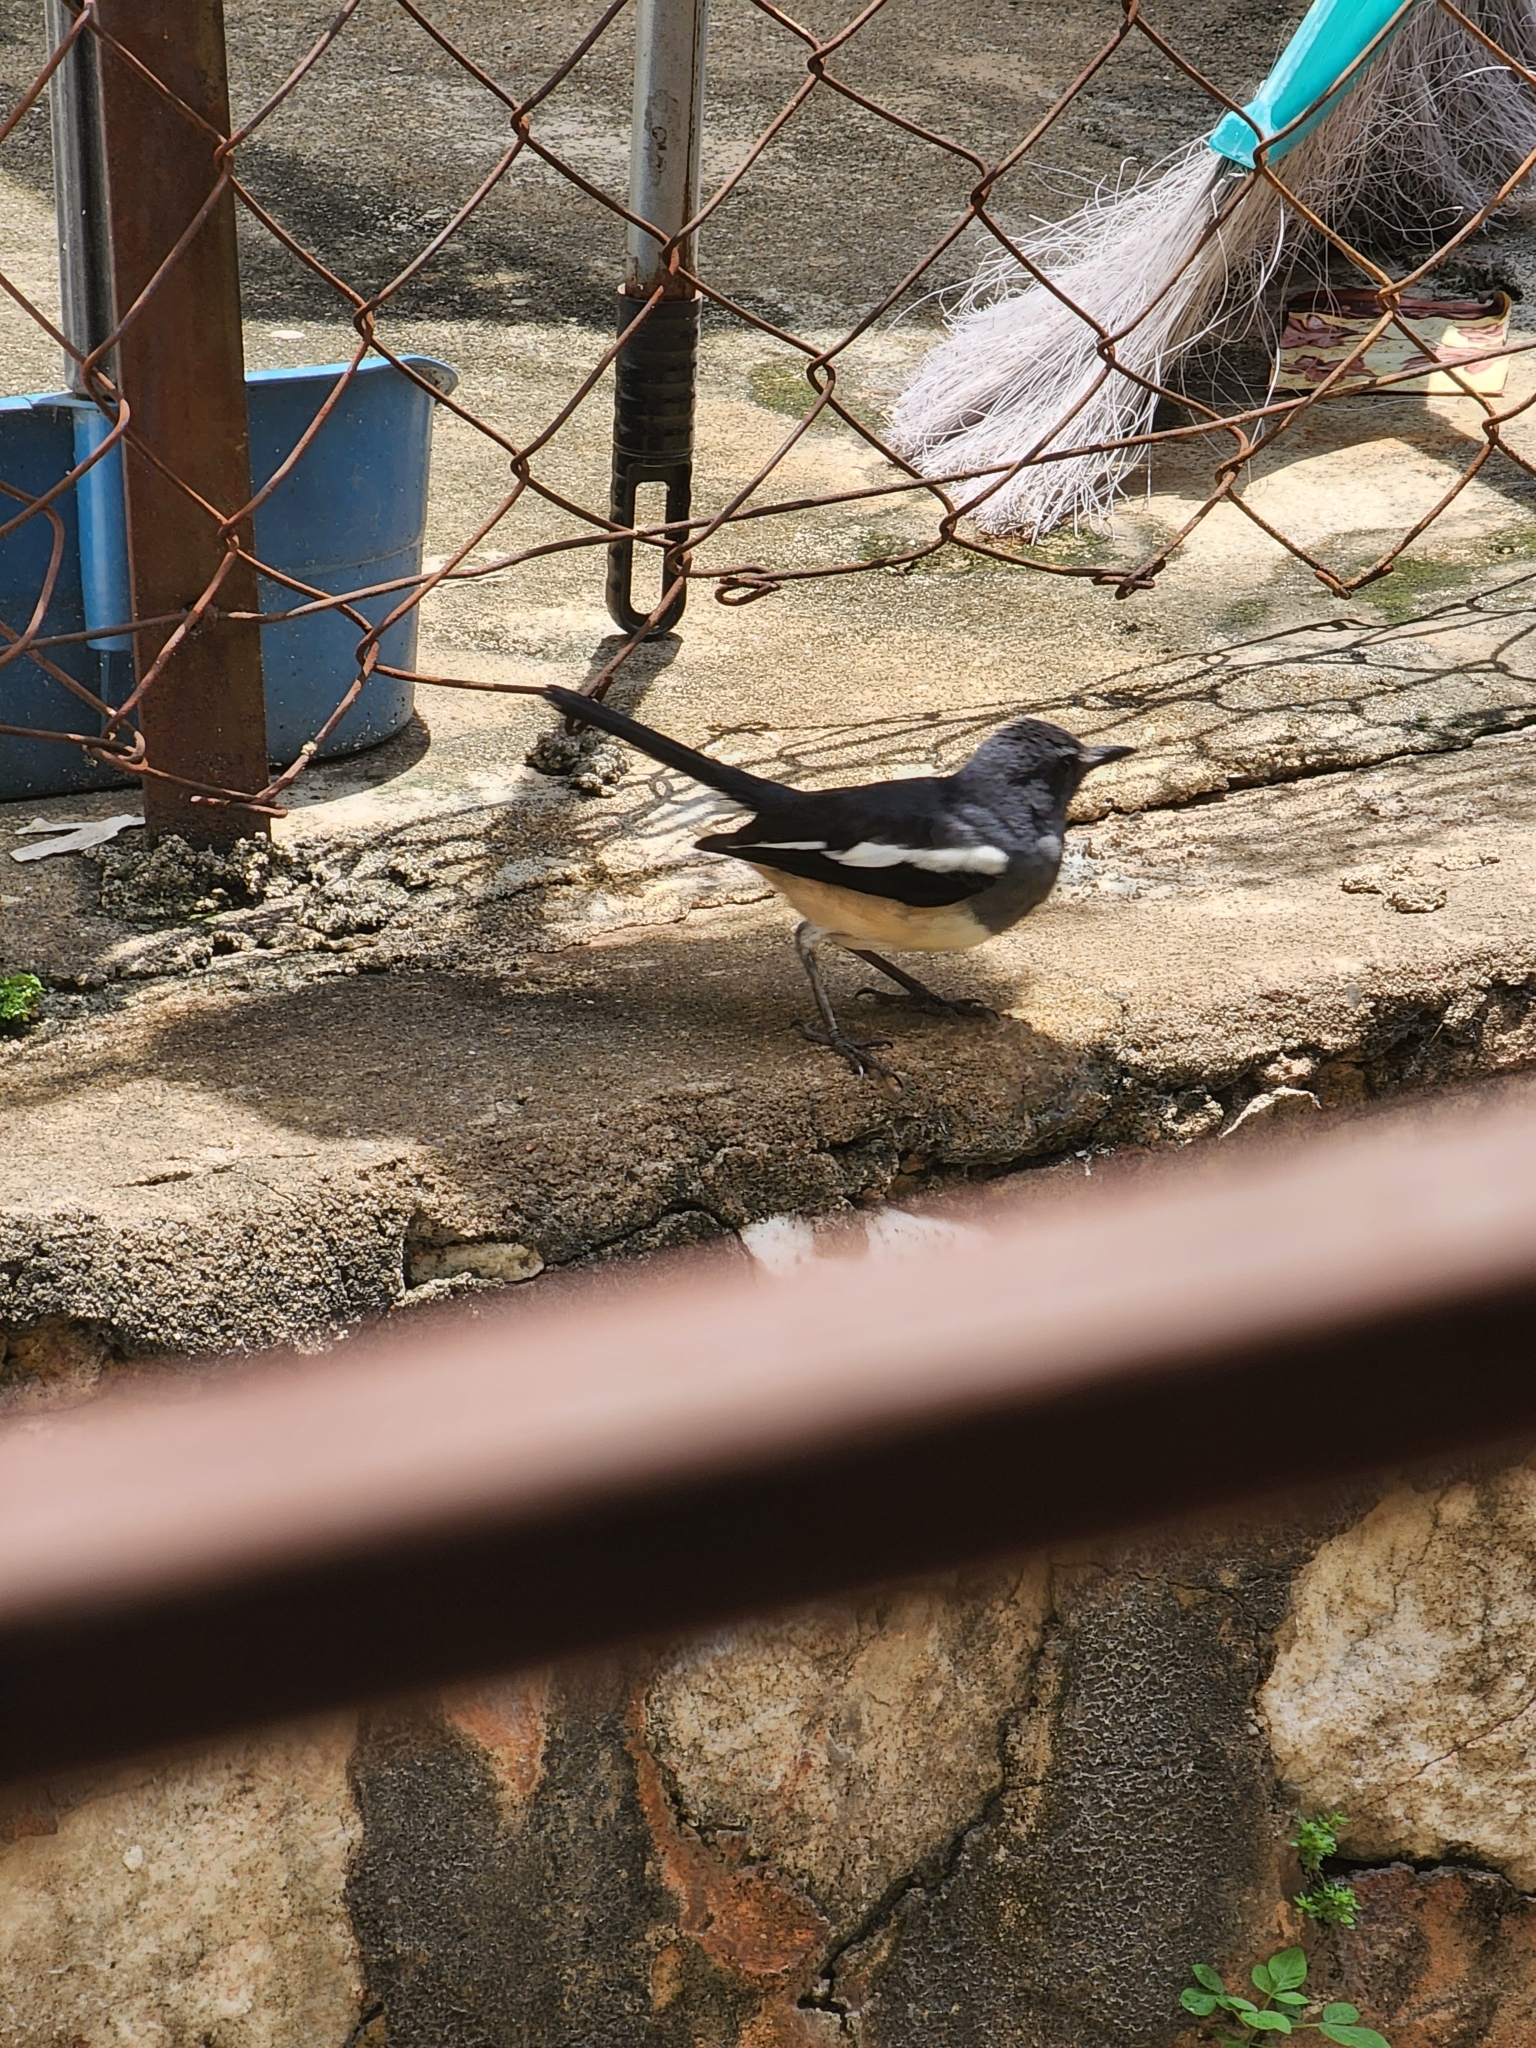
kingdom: Animalia
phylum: Chordata
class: Aves
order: Passeriformes
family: Muscicapidae
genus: Copsychus
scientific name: Copsychus saularis
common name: Oriental magpie-robin
